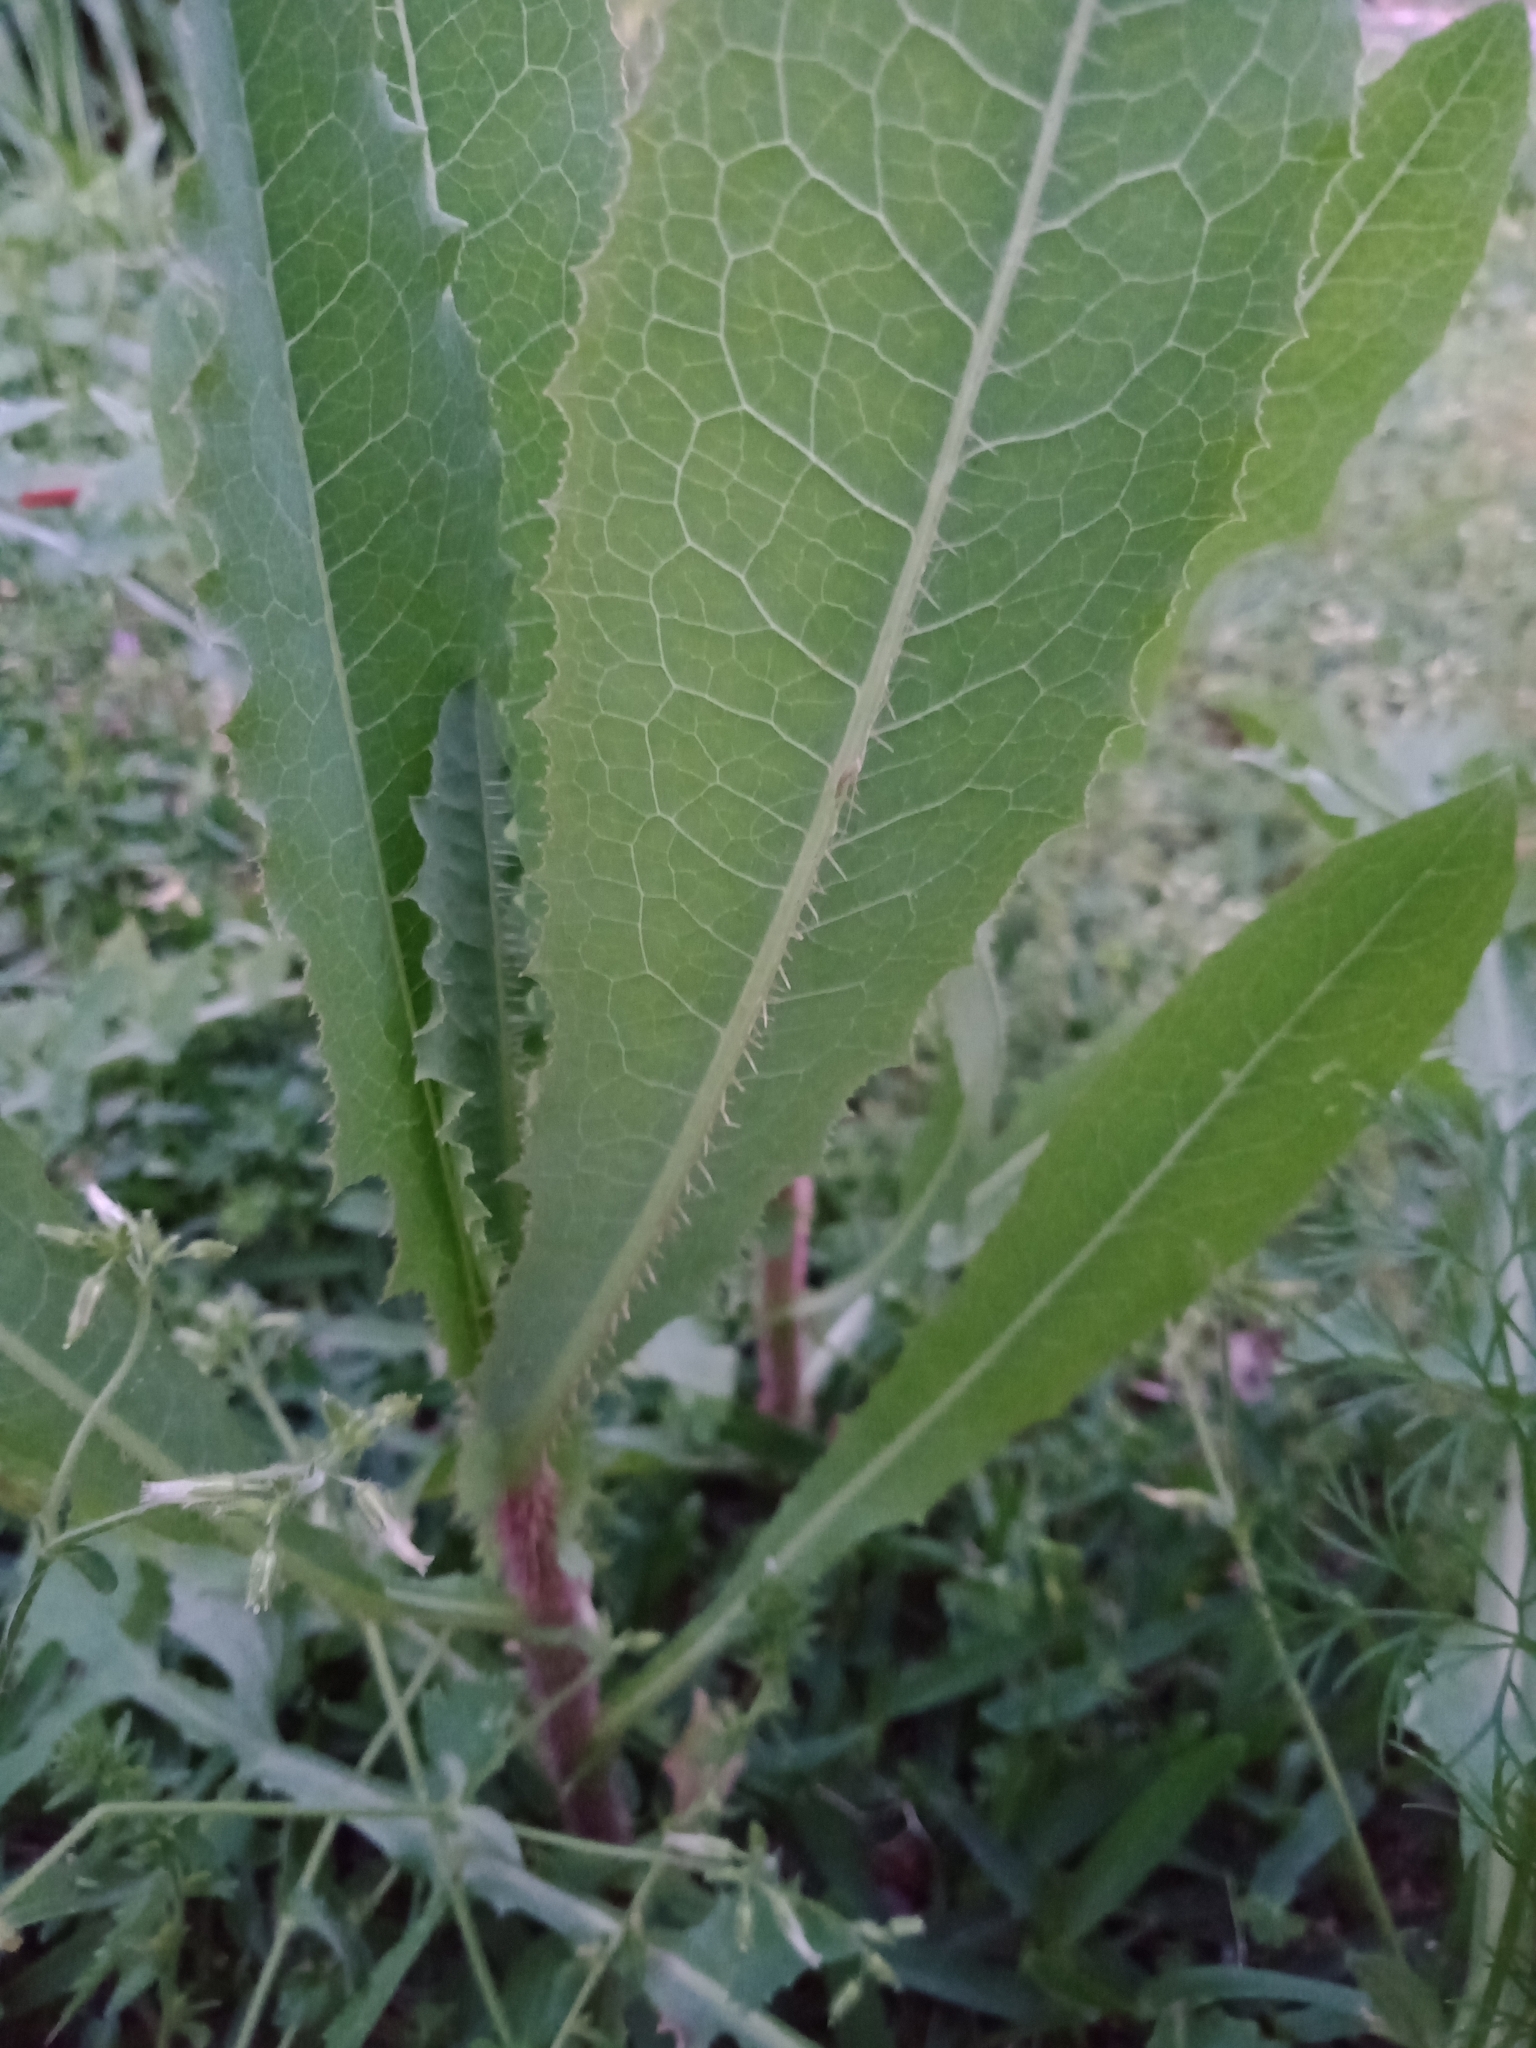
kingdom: Plantae
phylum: Tracheophyta
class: Magnoliopsida
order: Asterales
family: Asteraceae
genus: Lactuca
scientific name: Lactuca serriola
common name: Prickly lettuce
